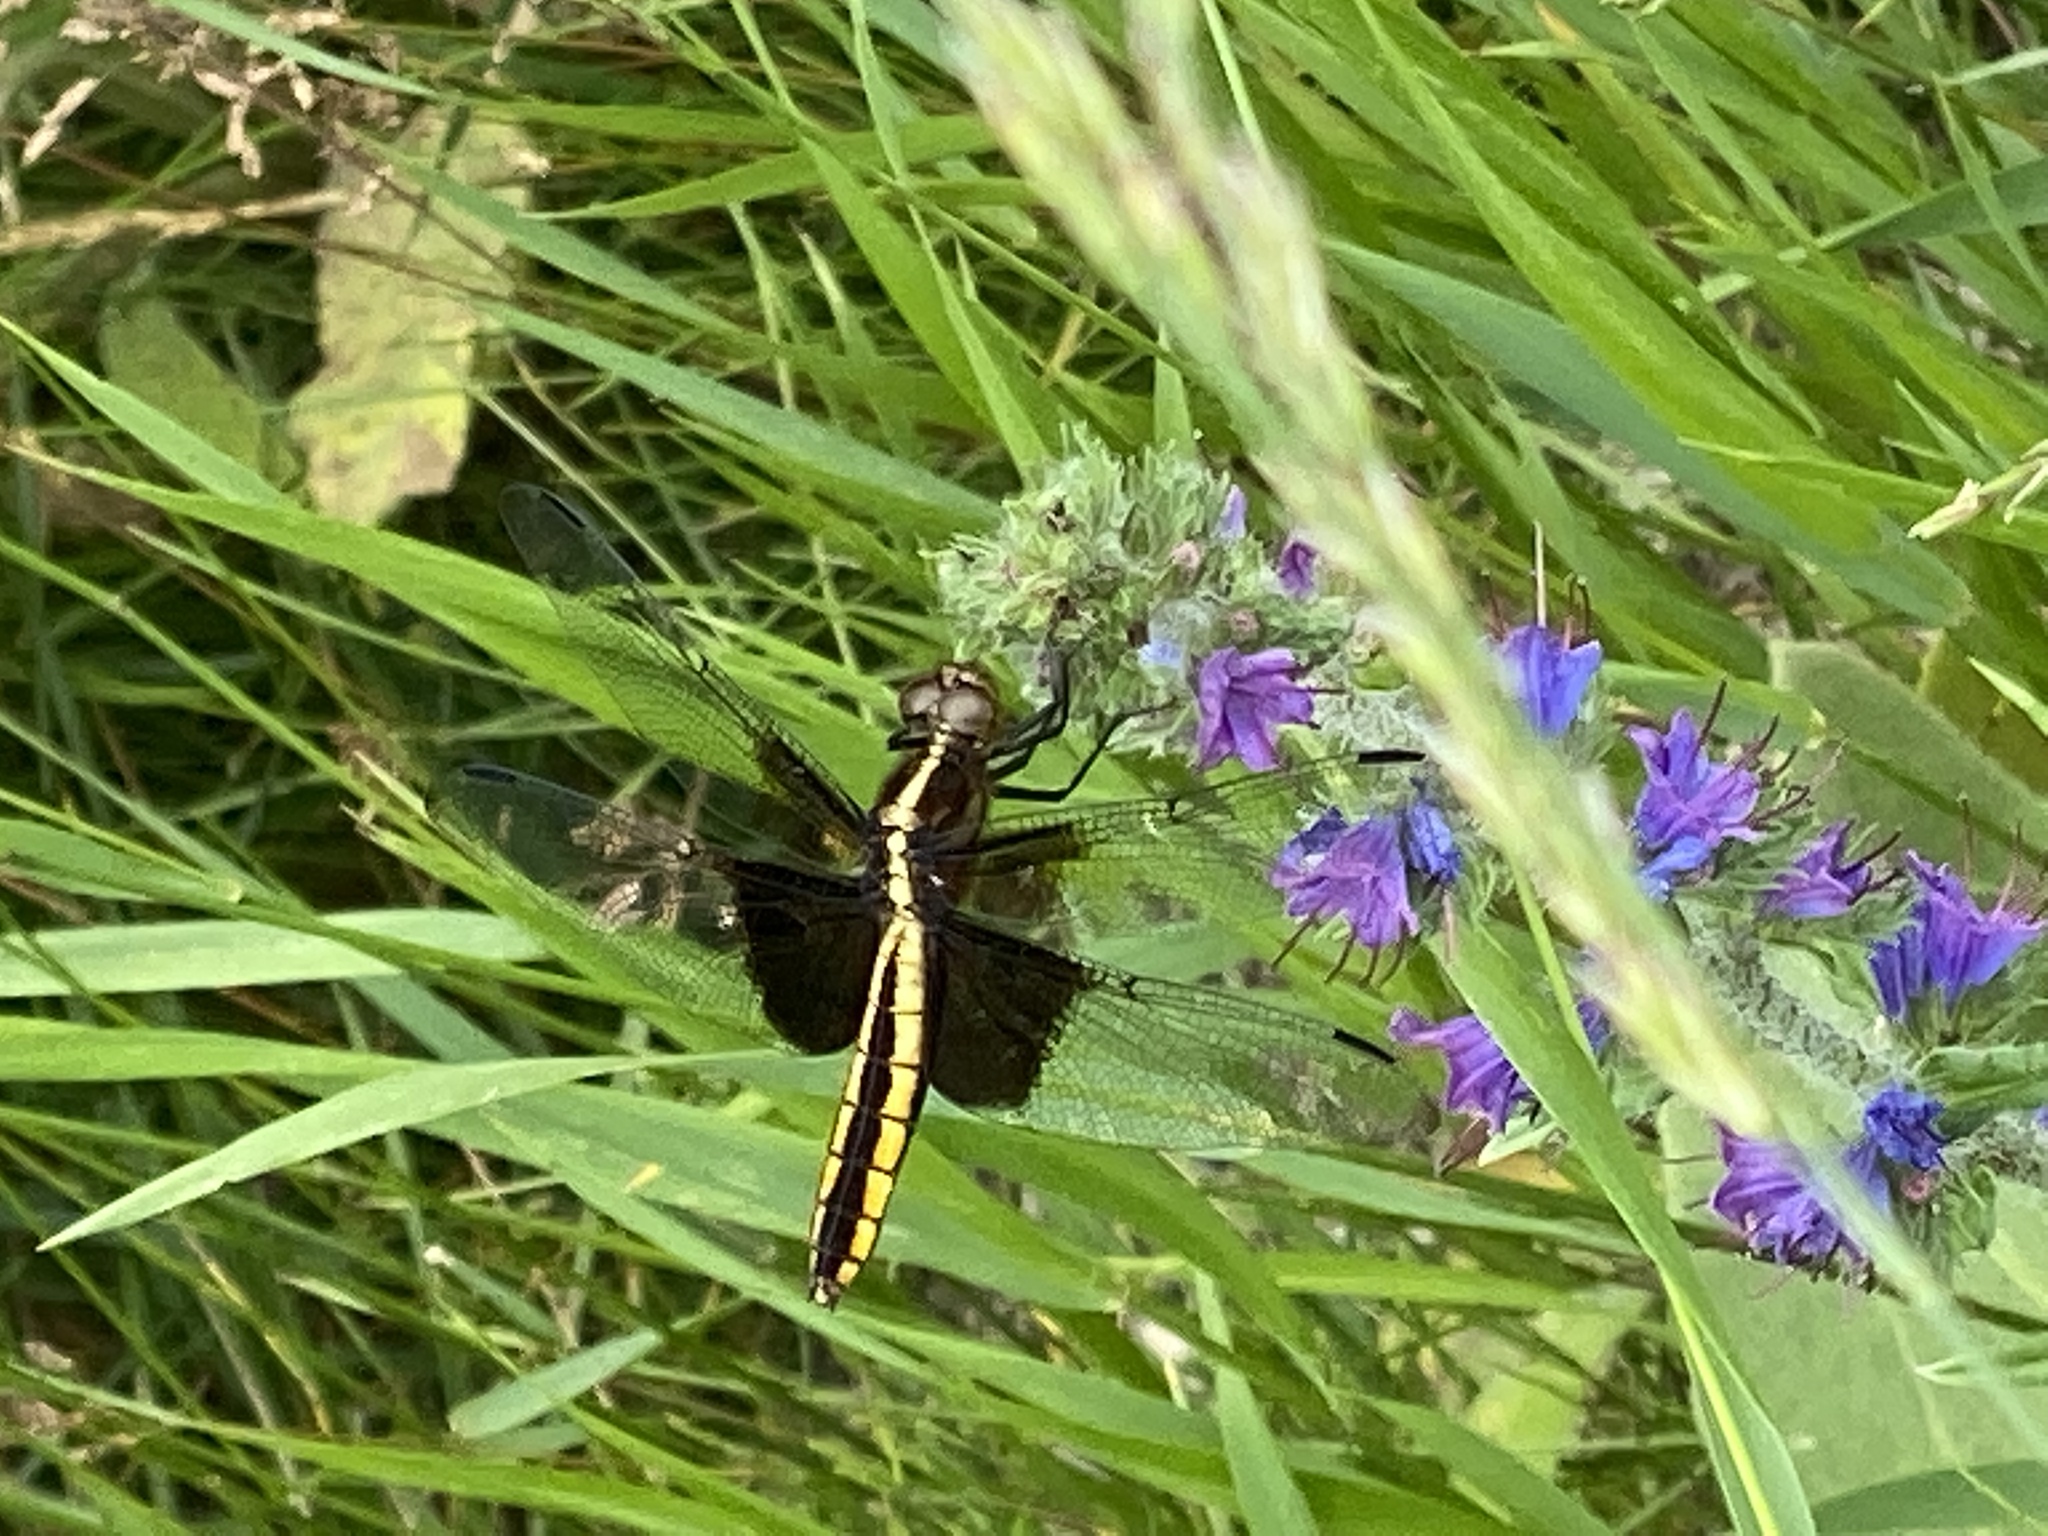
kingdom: Animalia
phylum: Arthropoda
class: Insecta
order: Odonata
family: Libellulidae
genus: Libellula
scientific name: Libellula luctuosa
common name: Widow skimmer
